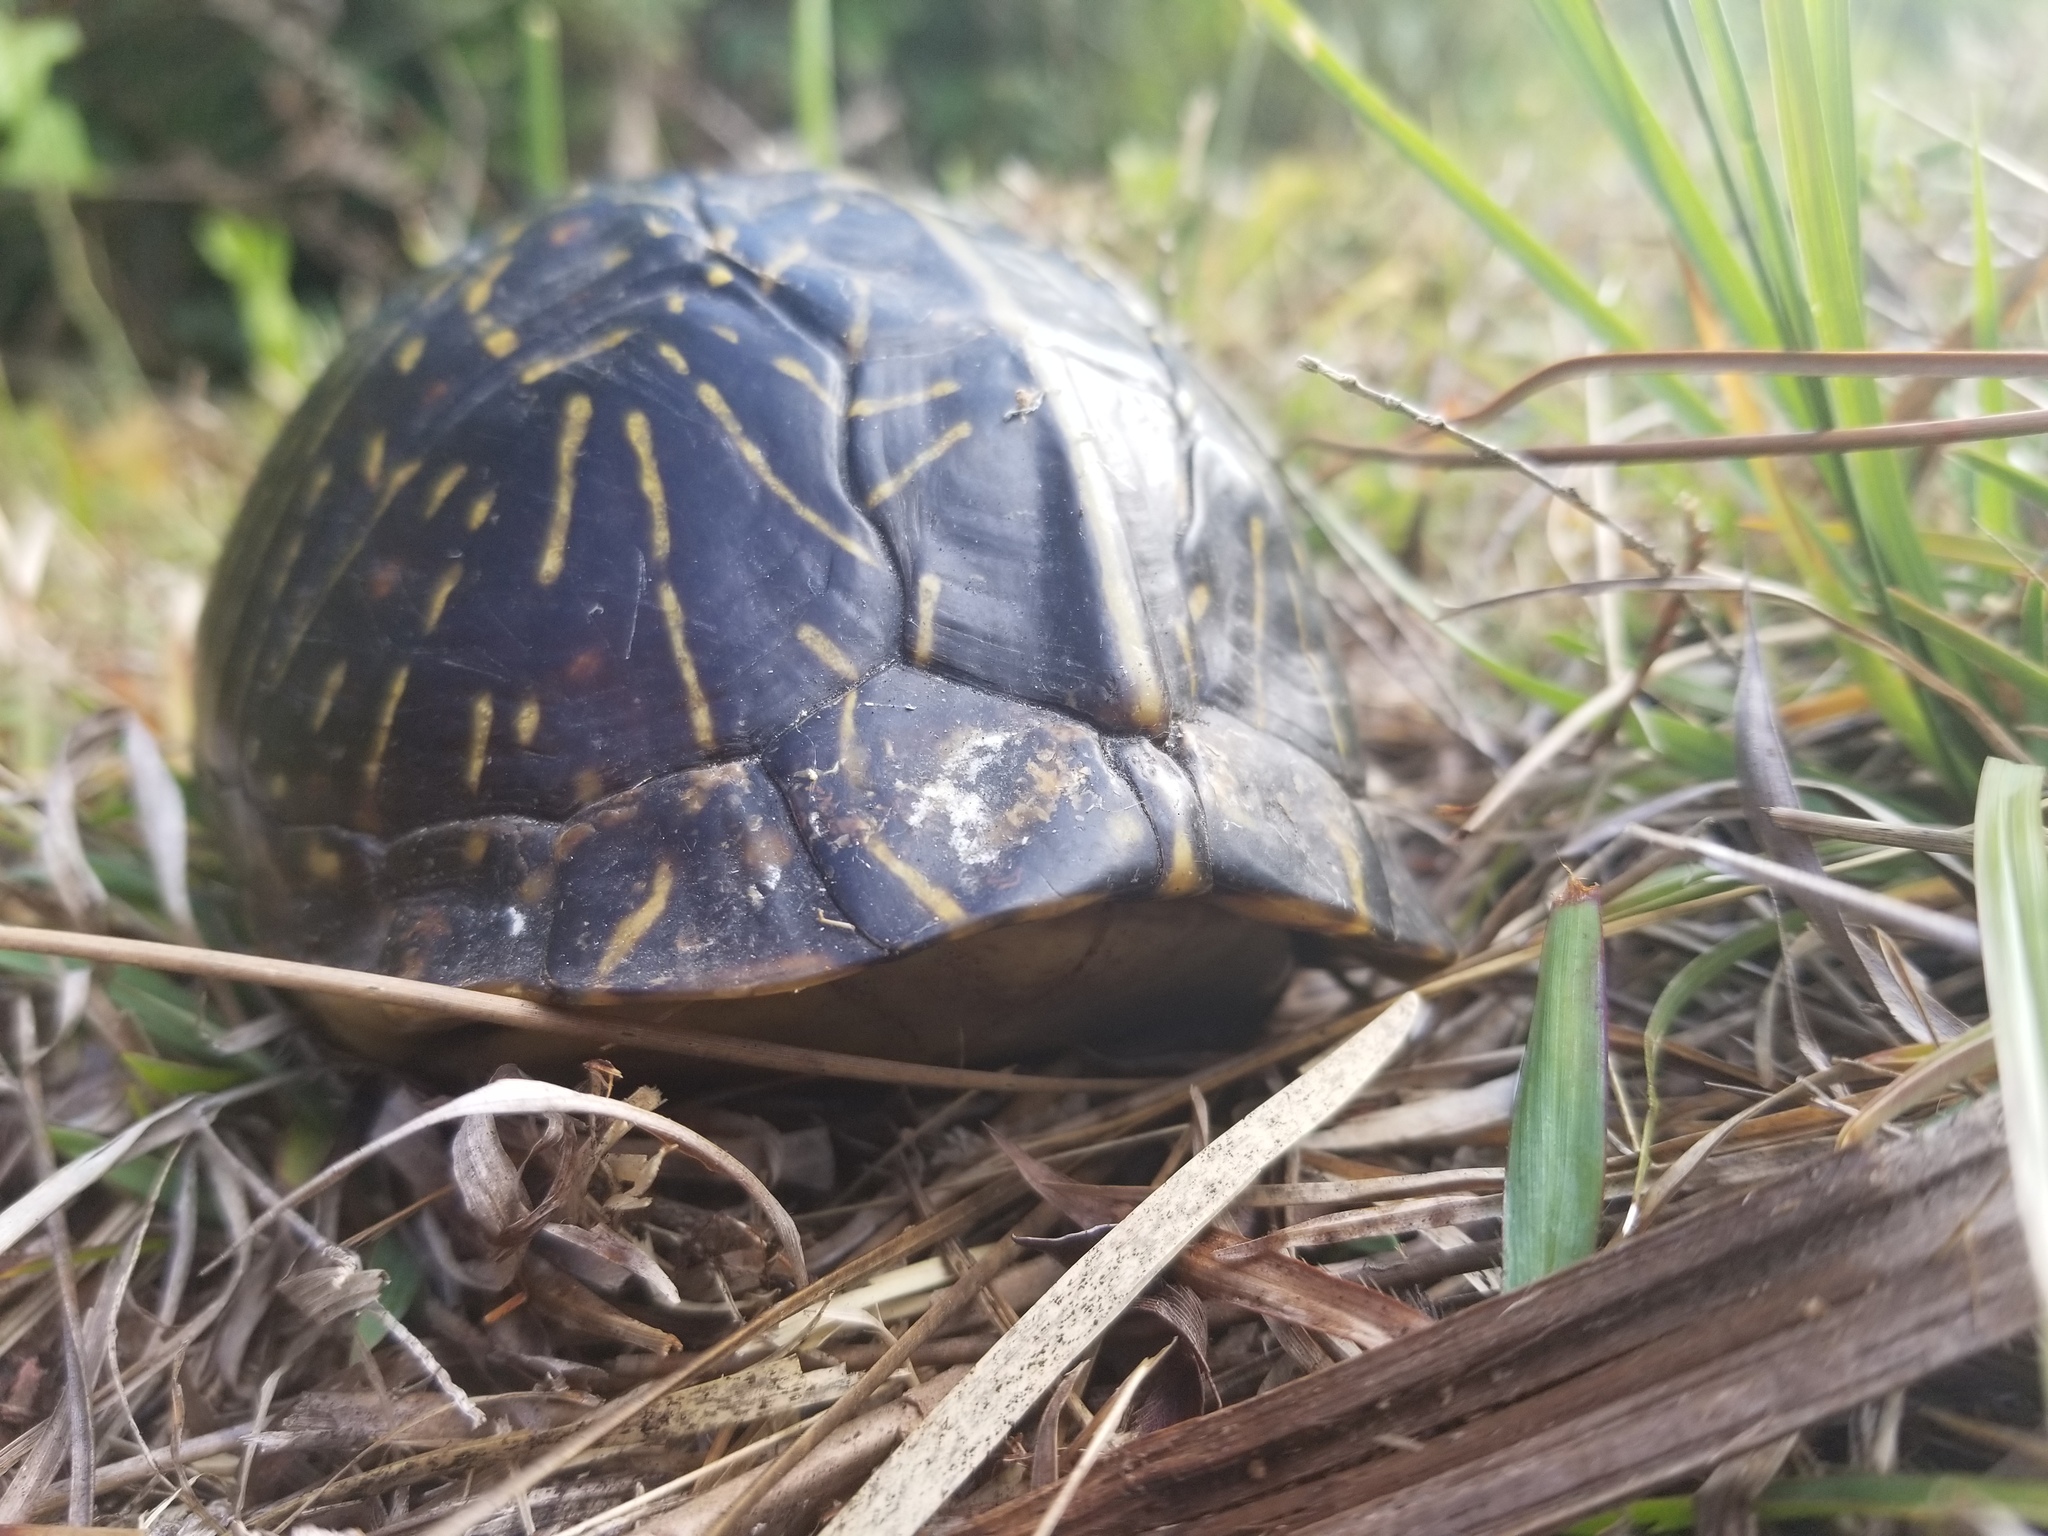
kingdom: Animalia
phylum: Chordata
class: Testudines
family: Emydidae
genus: Terrapene
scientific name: Terrapene carolina
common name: Common box turtle
